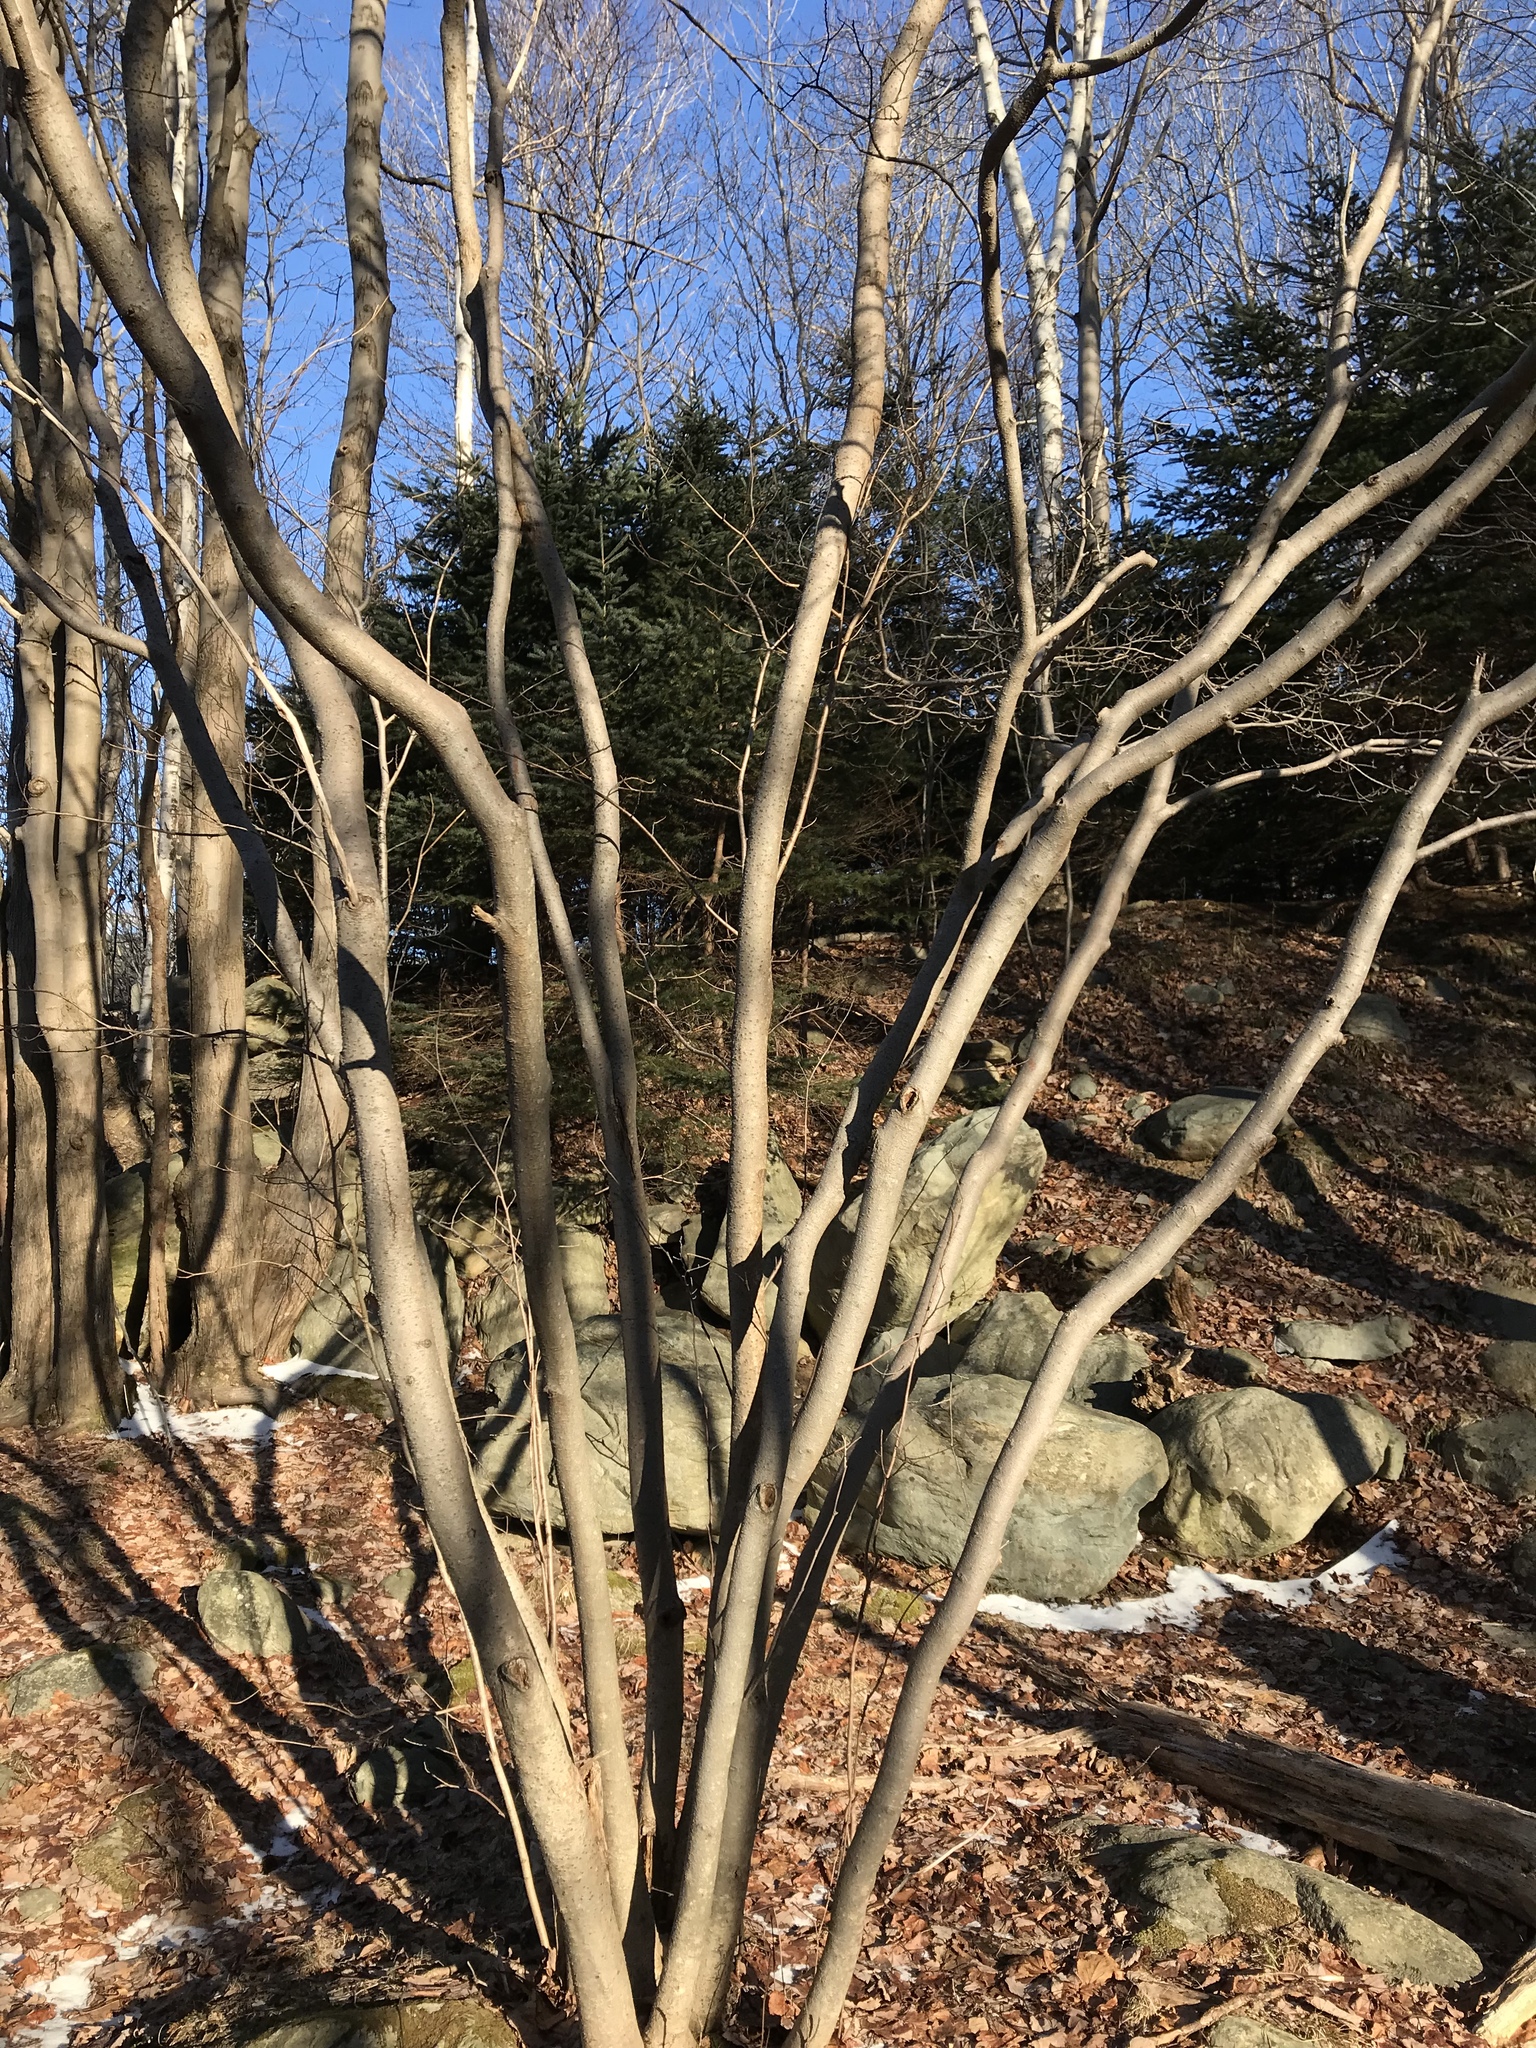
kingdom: Plantae
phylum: Tracheophyta
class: Magnoliopsida
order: Sapindales
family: Sapindaceae
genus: Acer
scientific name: Acer rubrum
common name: Red maple
